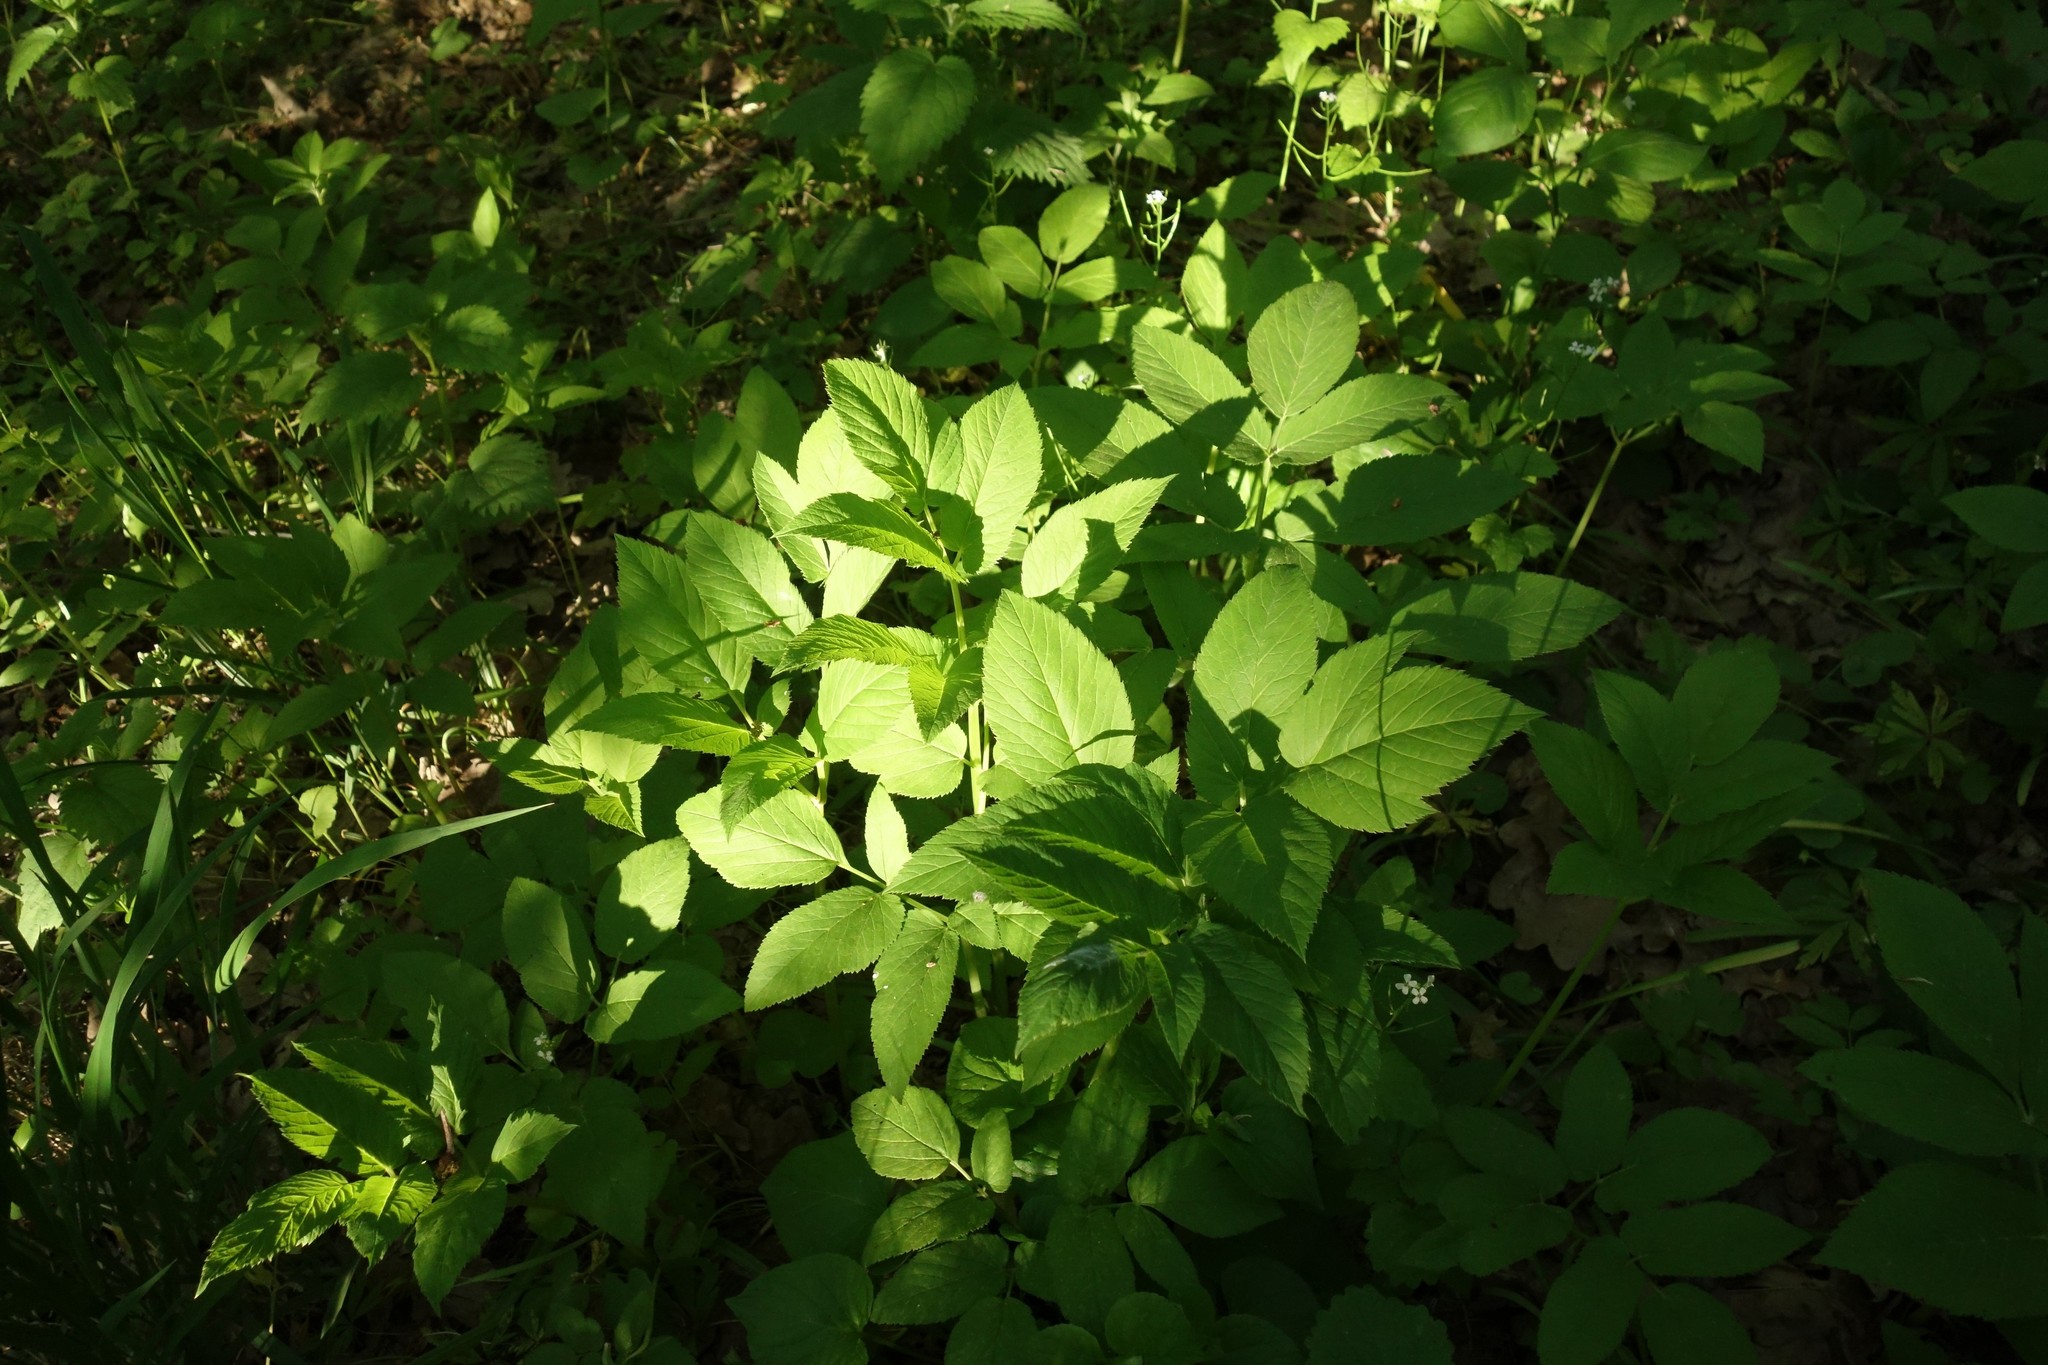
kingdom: Plantae
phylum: Tracheophyta
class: Magnoliopsida
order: Apiales
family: Apiaceae
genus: Aegopodium
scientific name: Aegopodium podagraria
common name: Ground-elder
